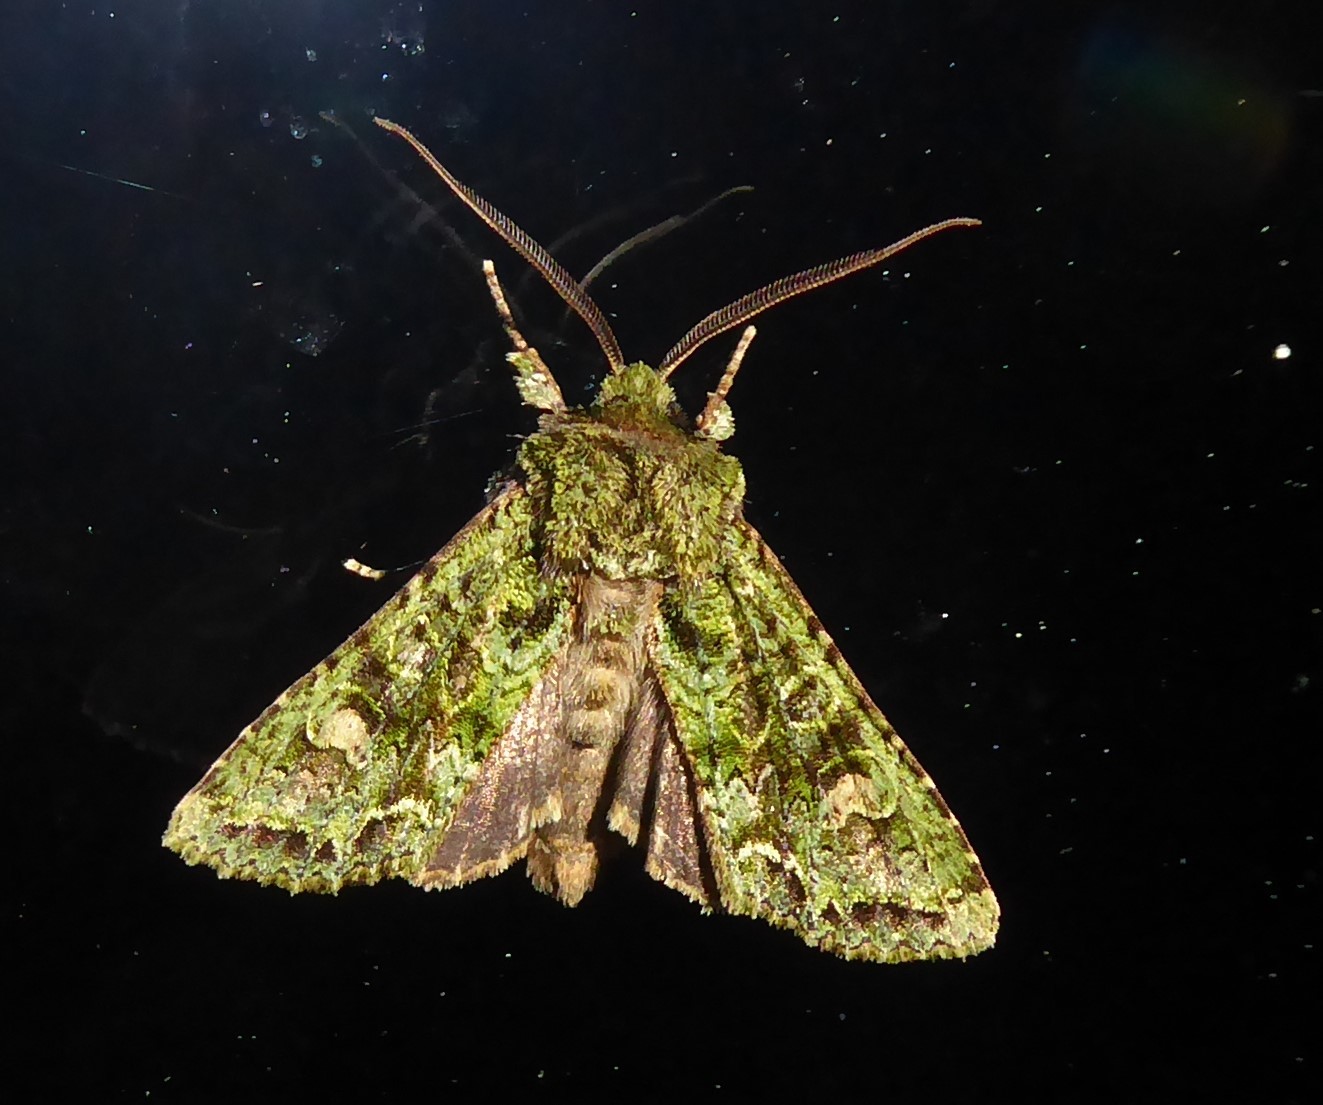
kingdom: Animalia
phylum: Arthropoda
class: Insecta
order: Lepidoptera
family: Noctuidae
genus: Ichneutica
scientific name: Ichneutica
